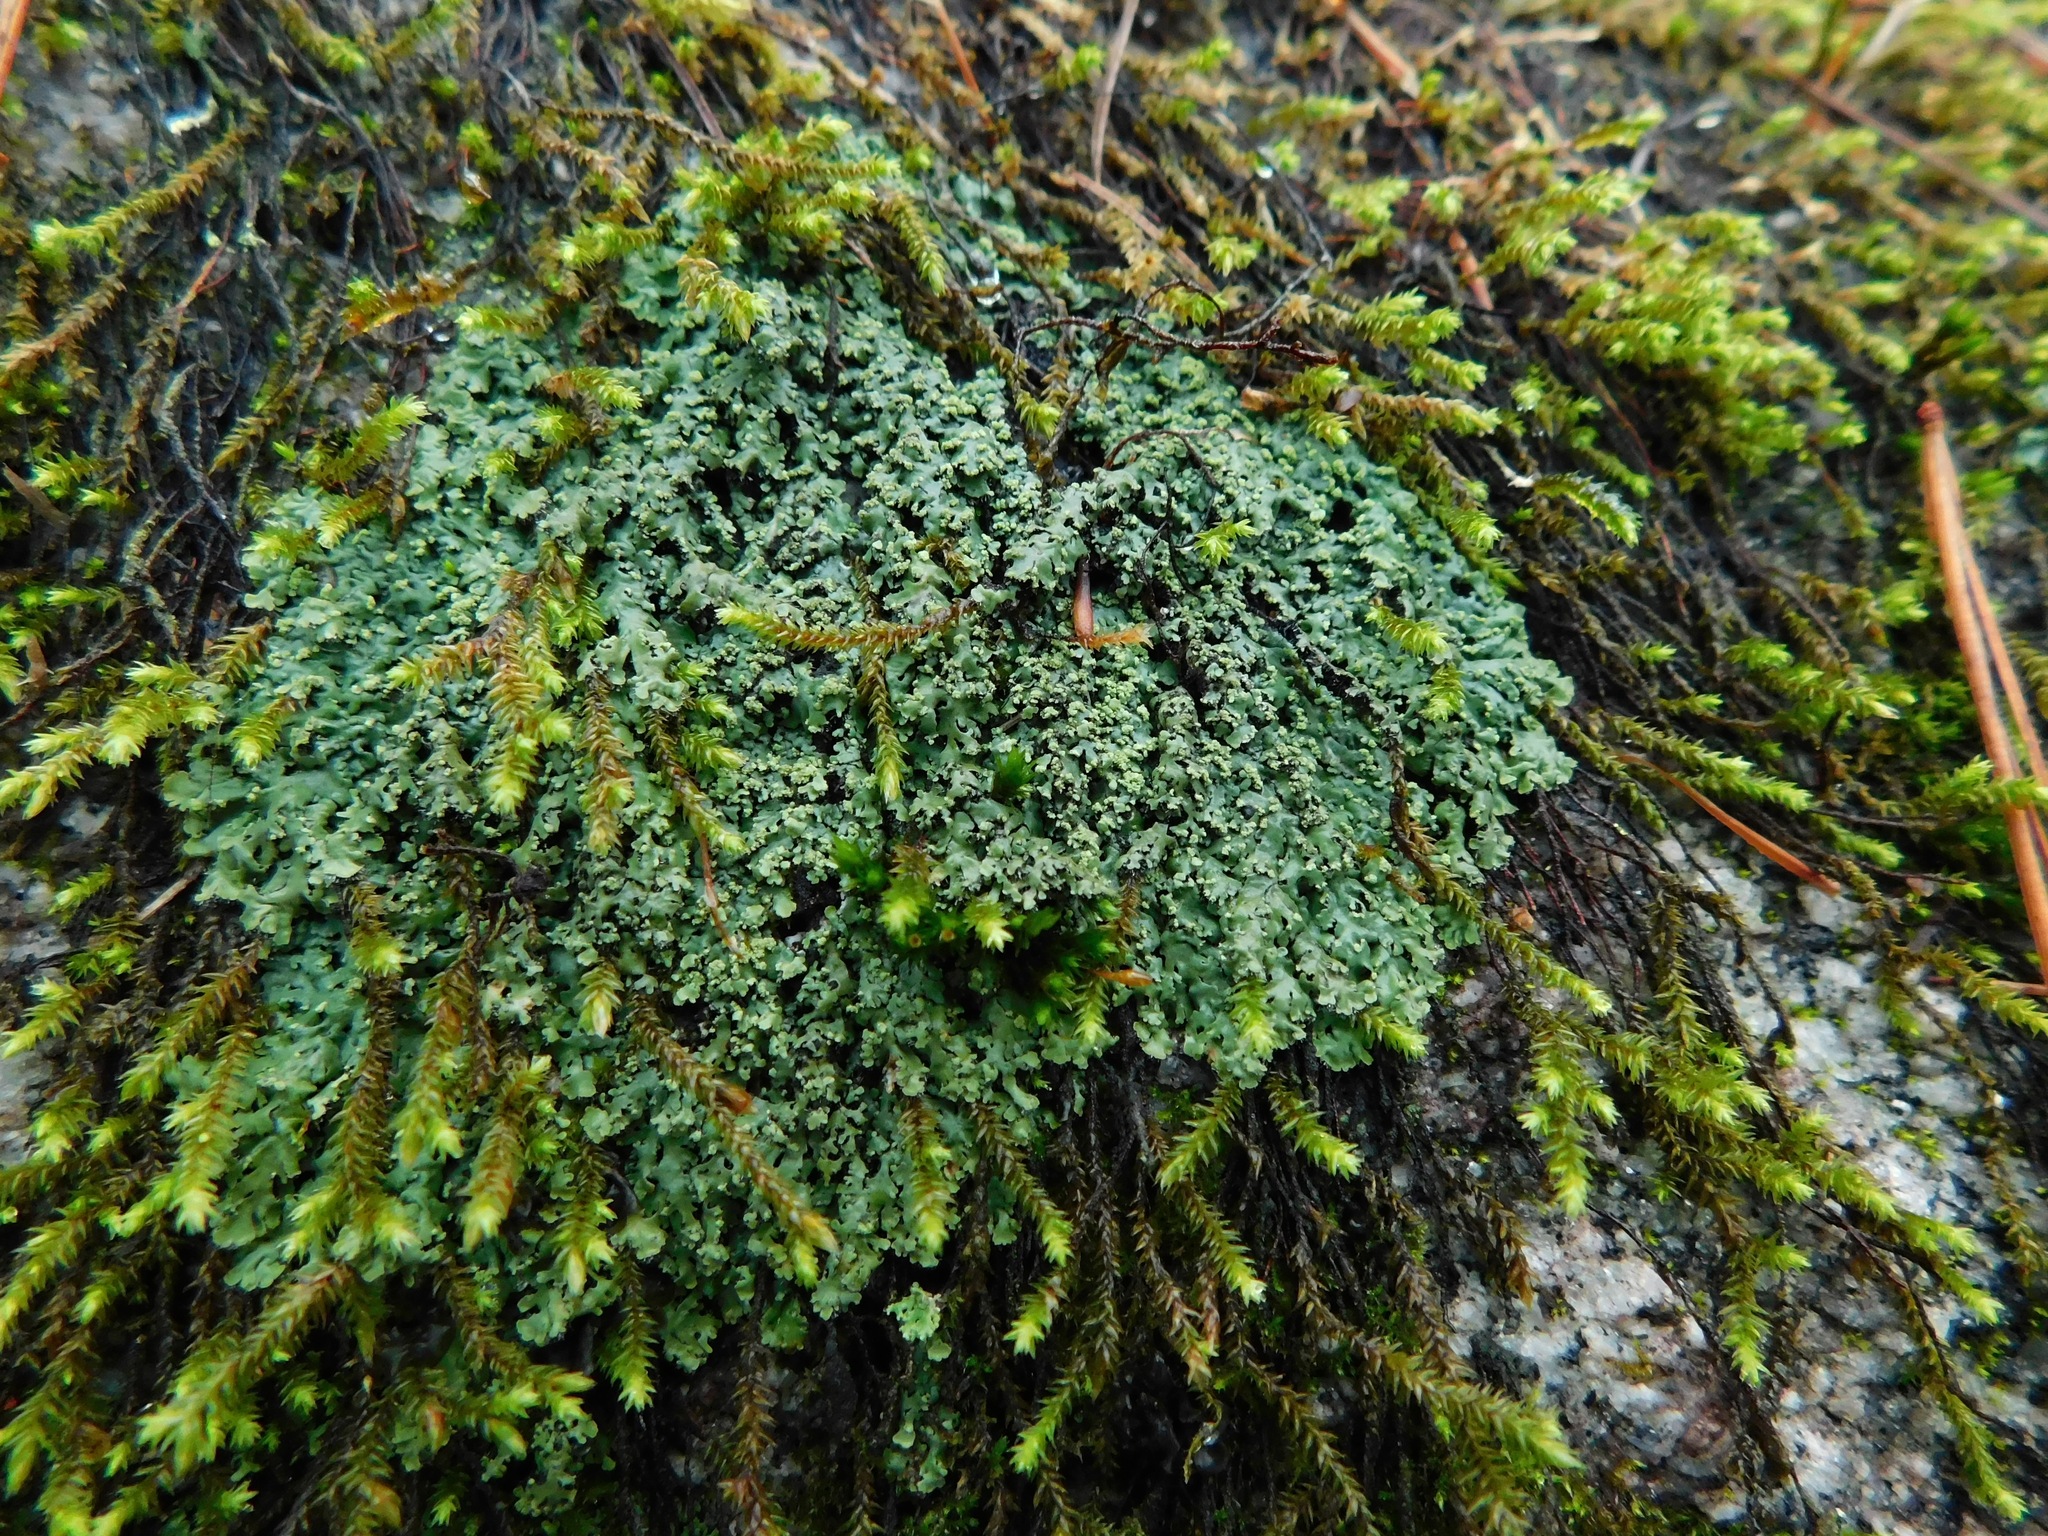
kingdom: Fungi
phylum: Ascomycota
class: Lecanoromycetes
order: Caliciales
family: Physciaceae
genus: Polyblastidium
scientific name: Polyblastidium squamulosum
